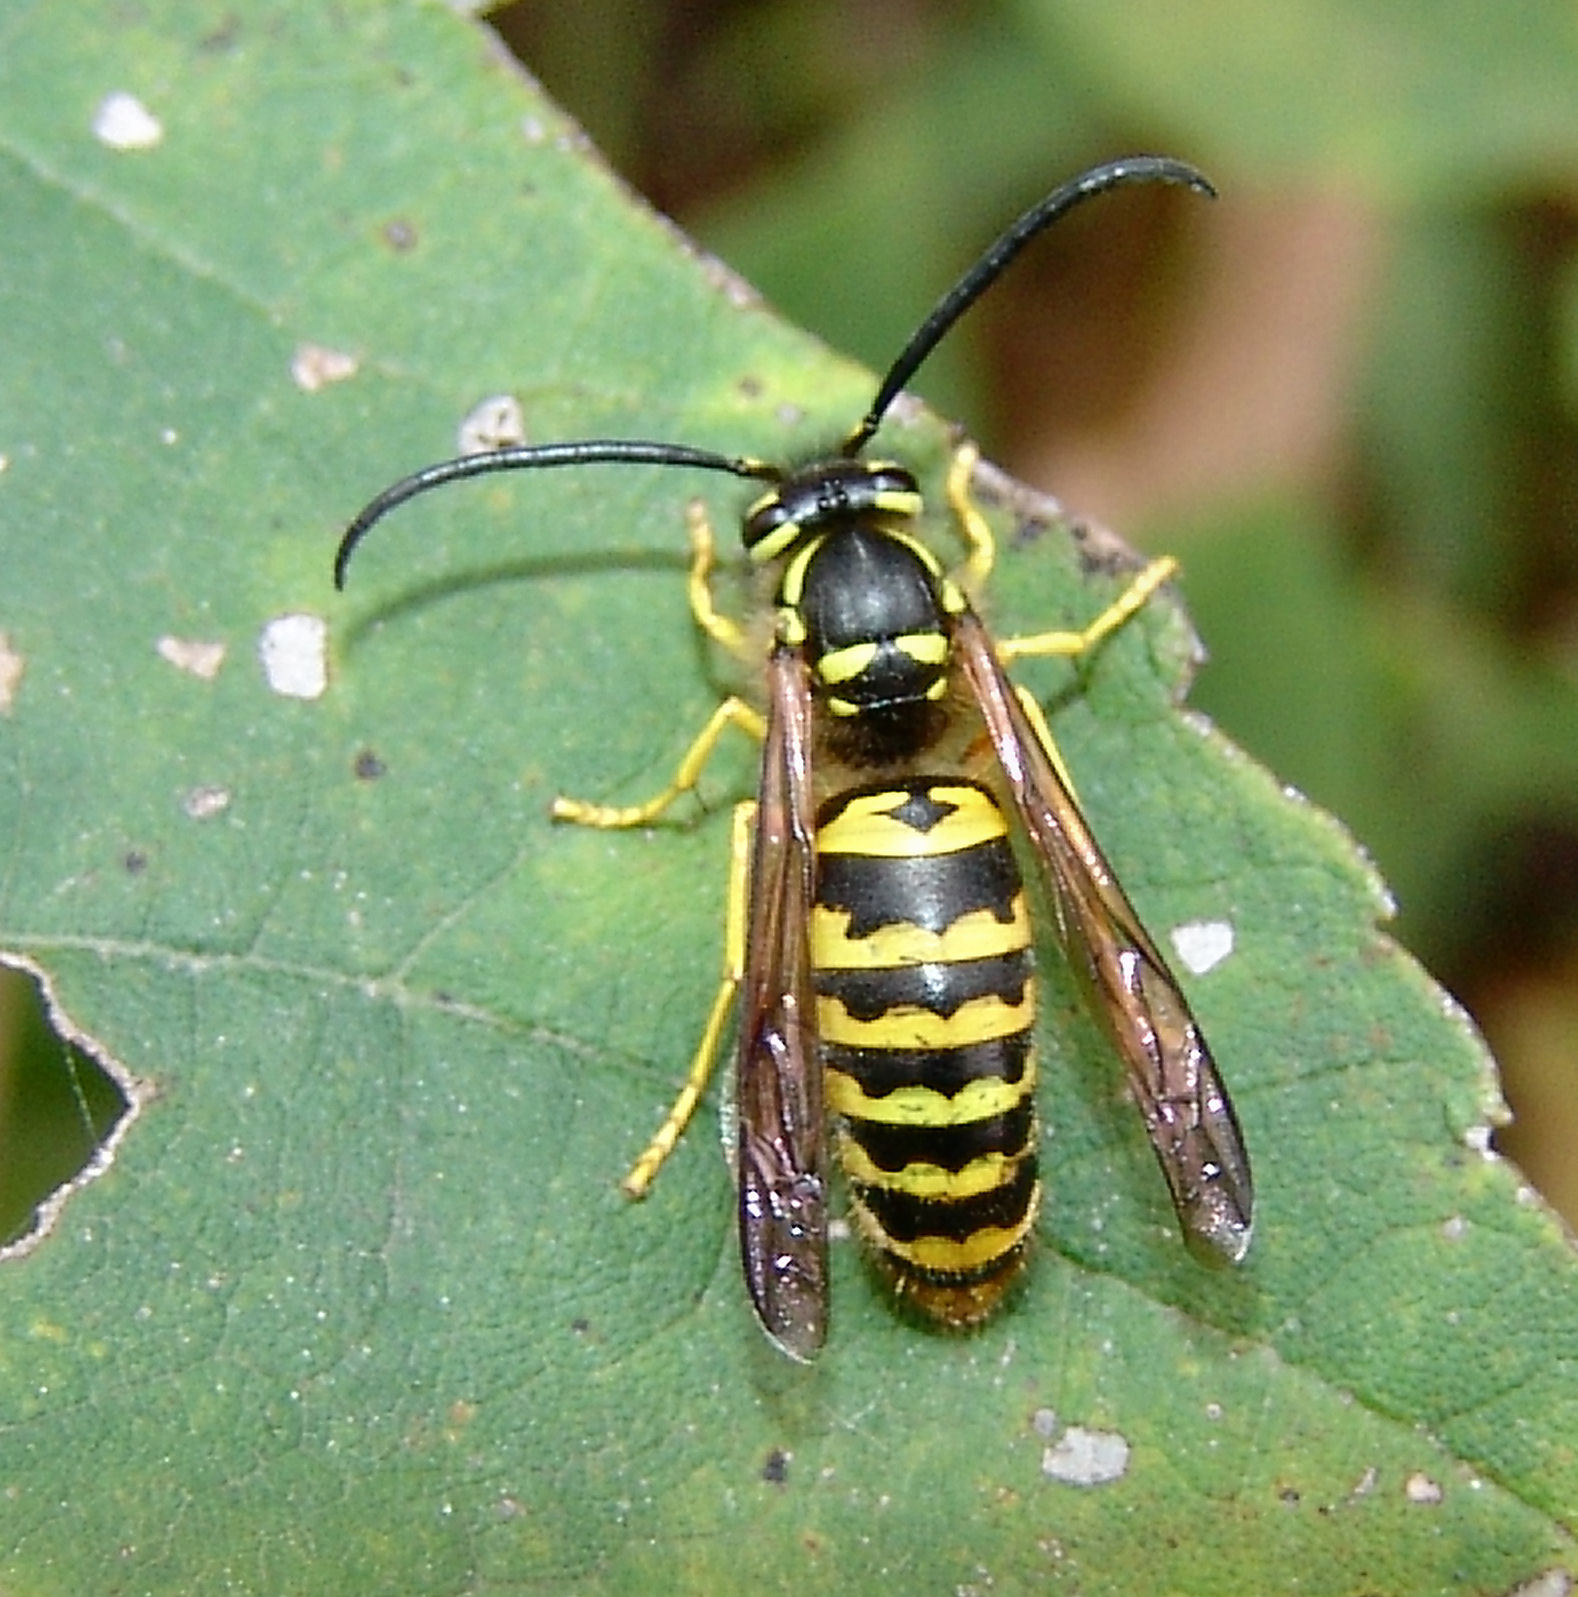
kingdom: Animalia
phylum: Arthropoda
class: Insecta
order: Hymenoptera
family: Vespidae
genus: Vespula
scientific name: Vespula maculifrons
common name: Eastern yellowjacket
